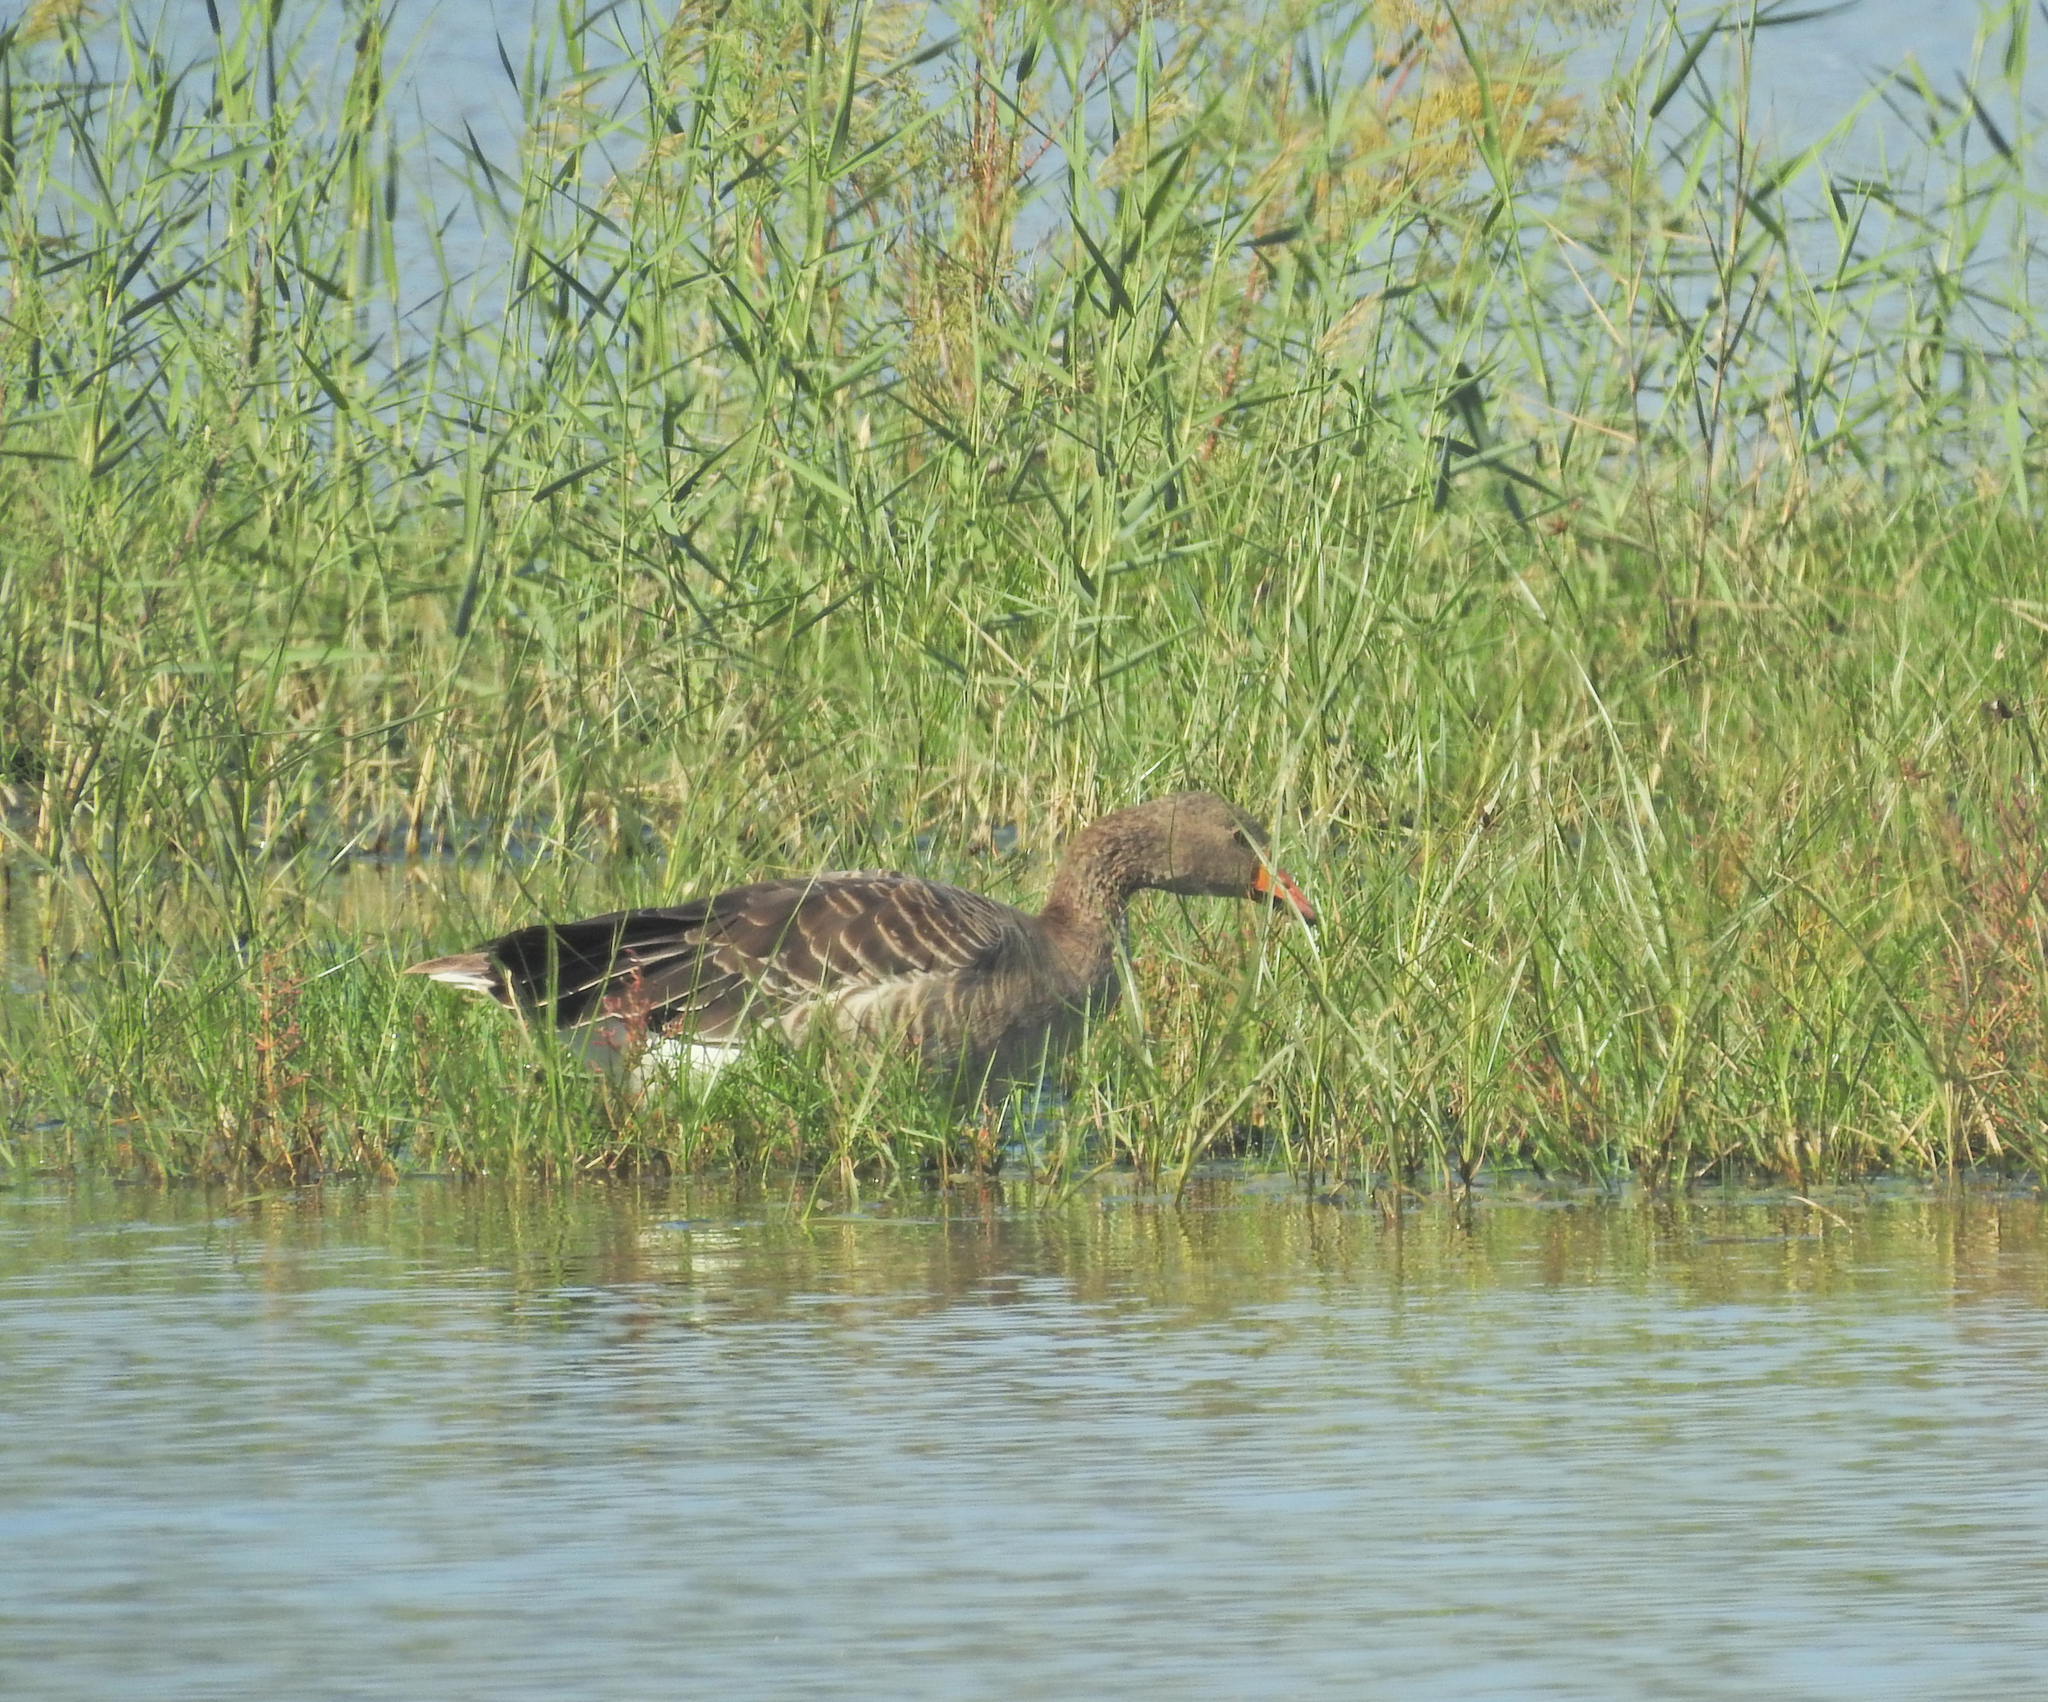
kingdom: Animalia
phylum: Chordata
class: Aves
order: Anseriformes
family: Anatidae
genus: Anser
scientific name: Anser anser
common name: Greylag goose
